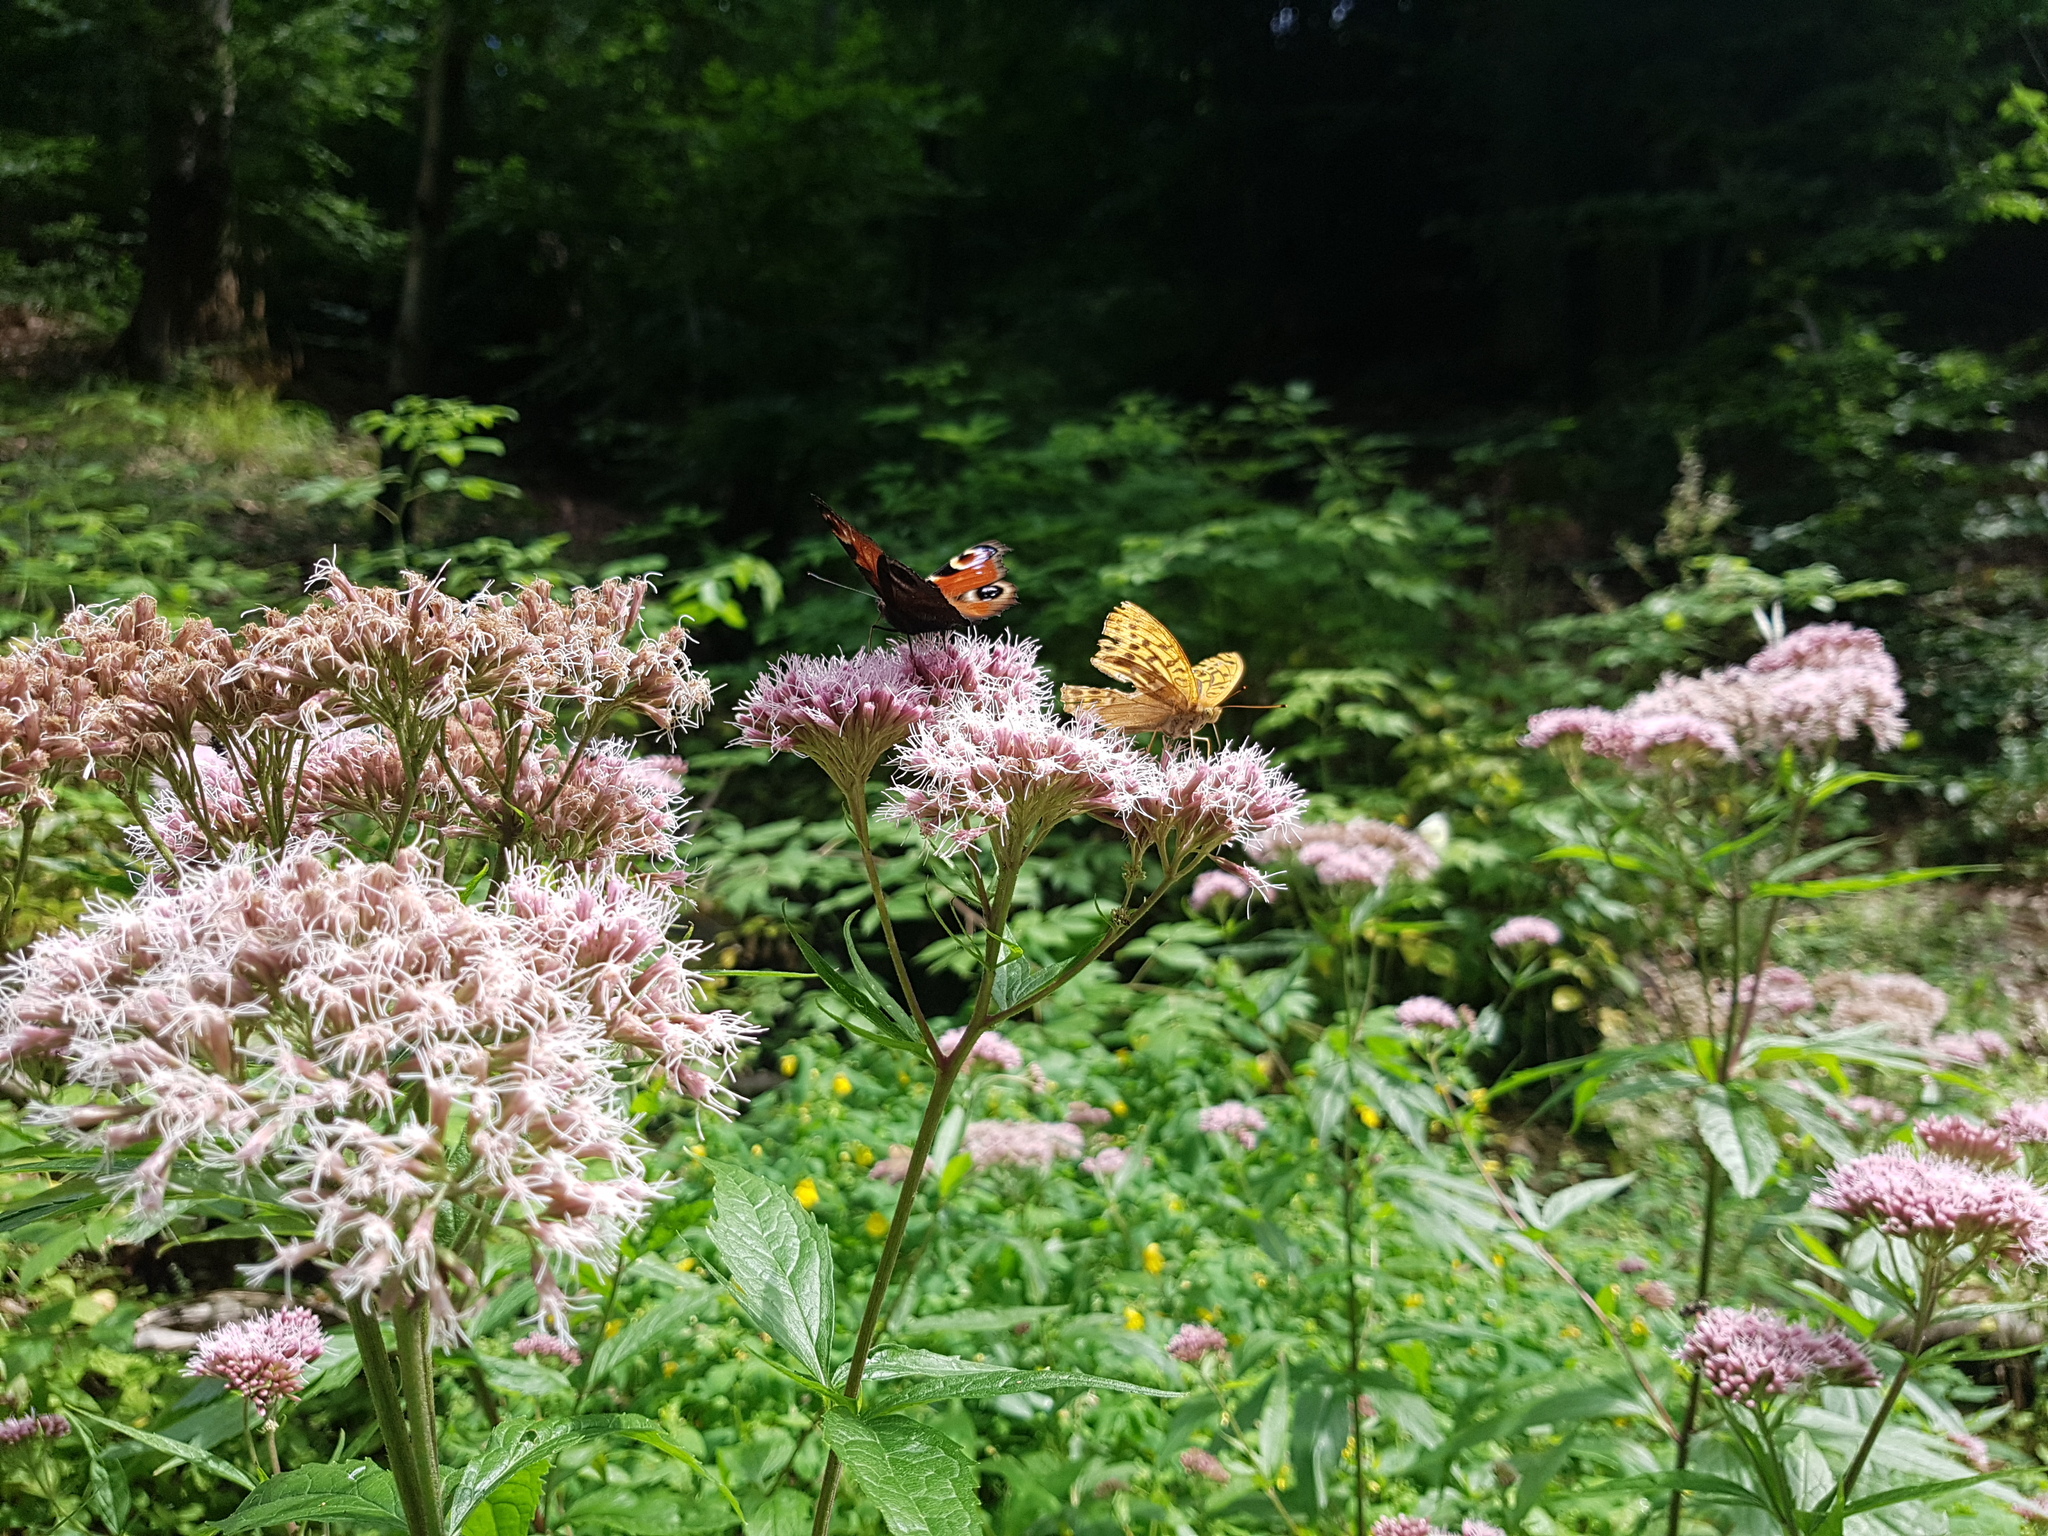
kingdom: Animalia
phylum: Arthropoda
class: Insecta
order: Lepidoptera
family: Nymphalidae
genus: Aglais
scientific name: Aglais io
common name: Peacock
